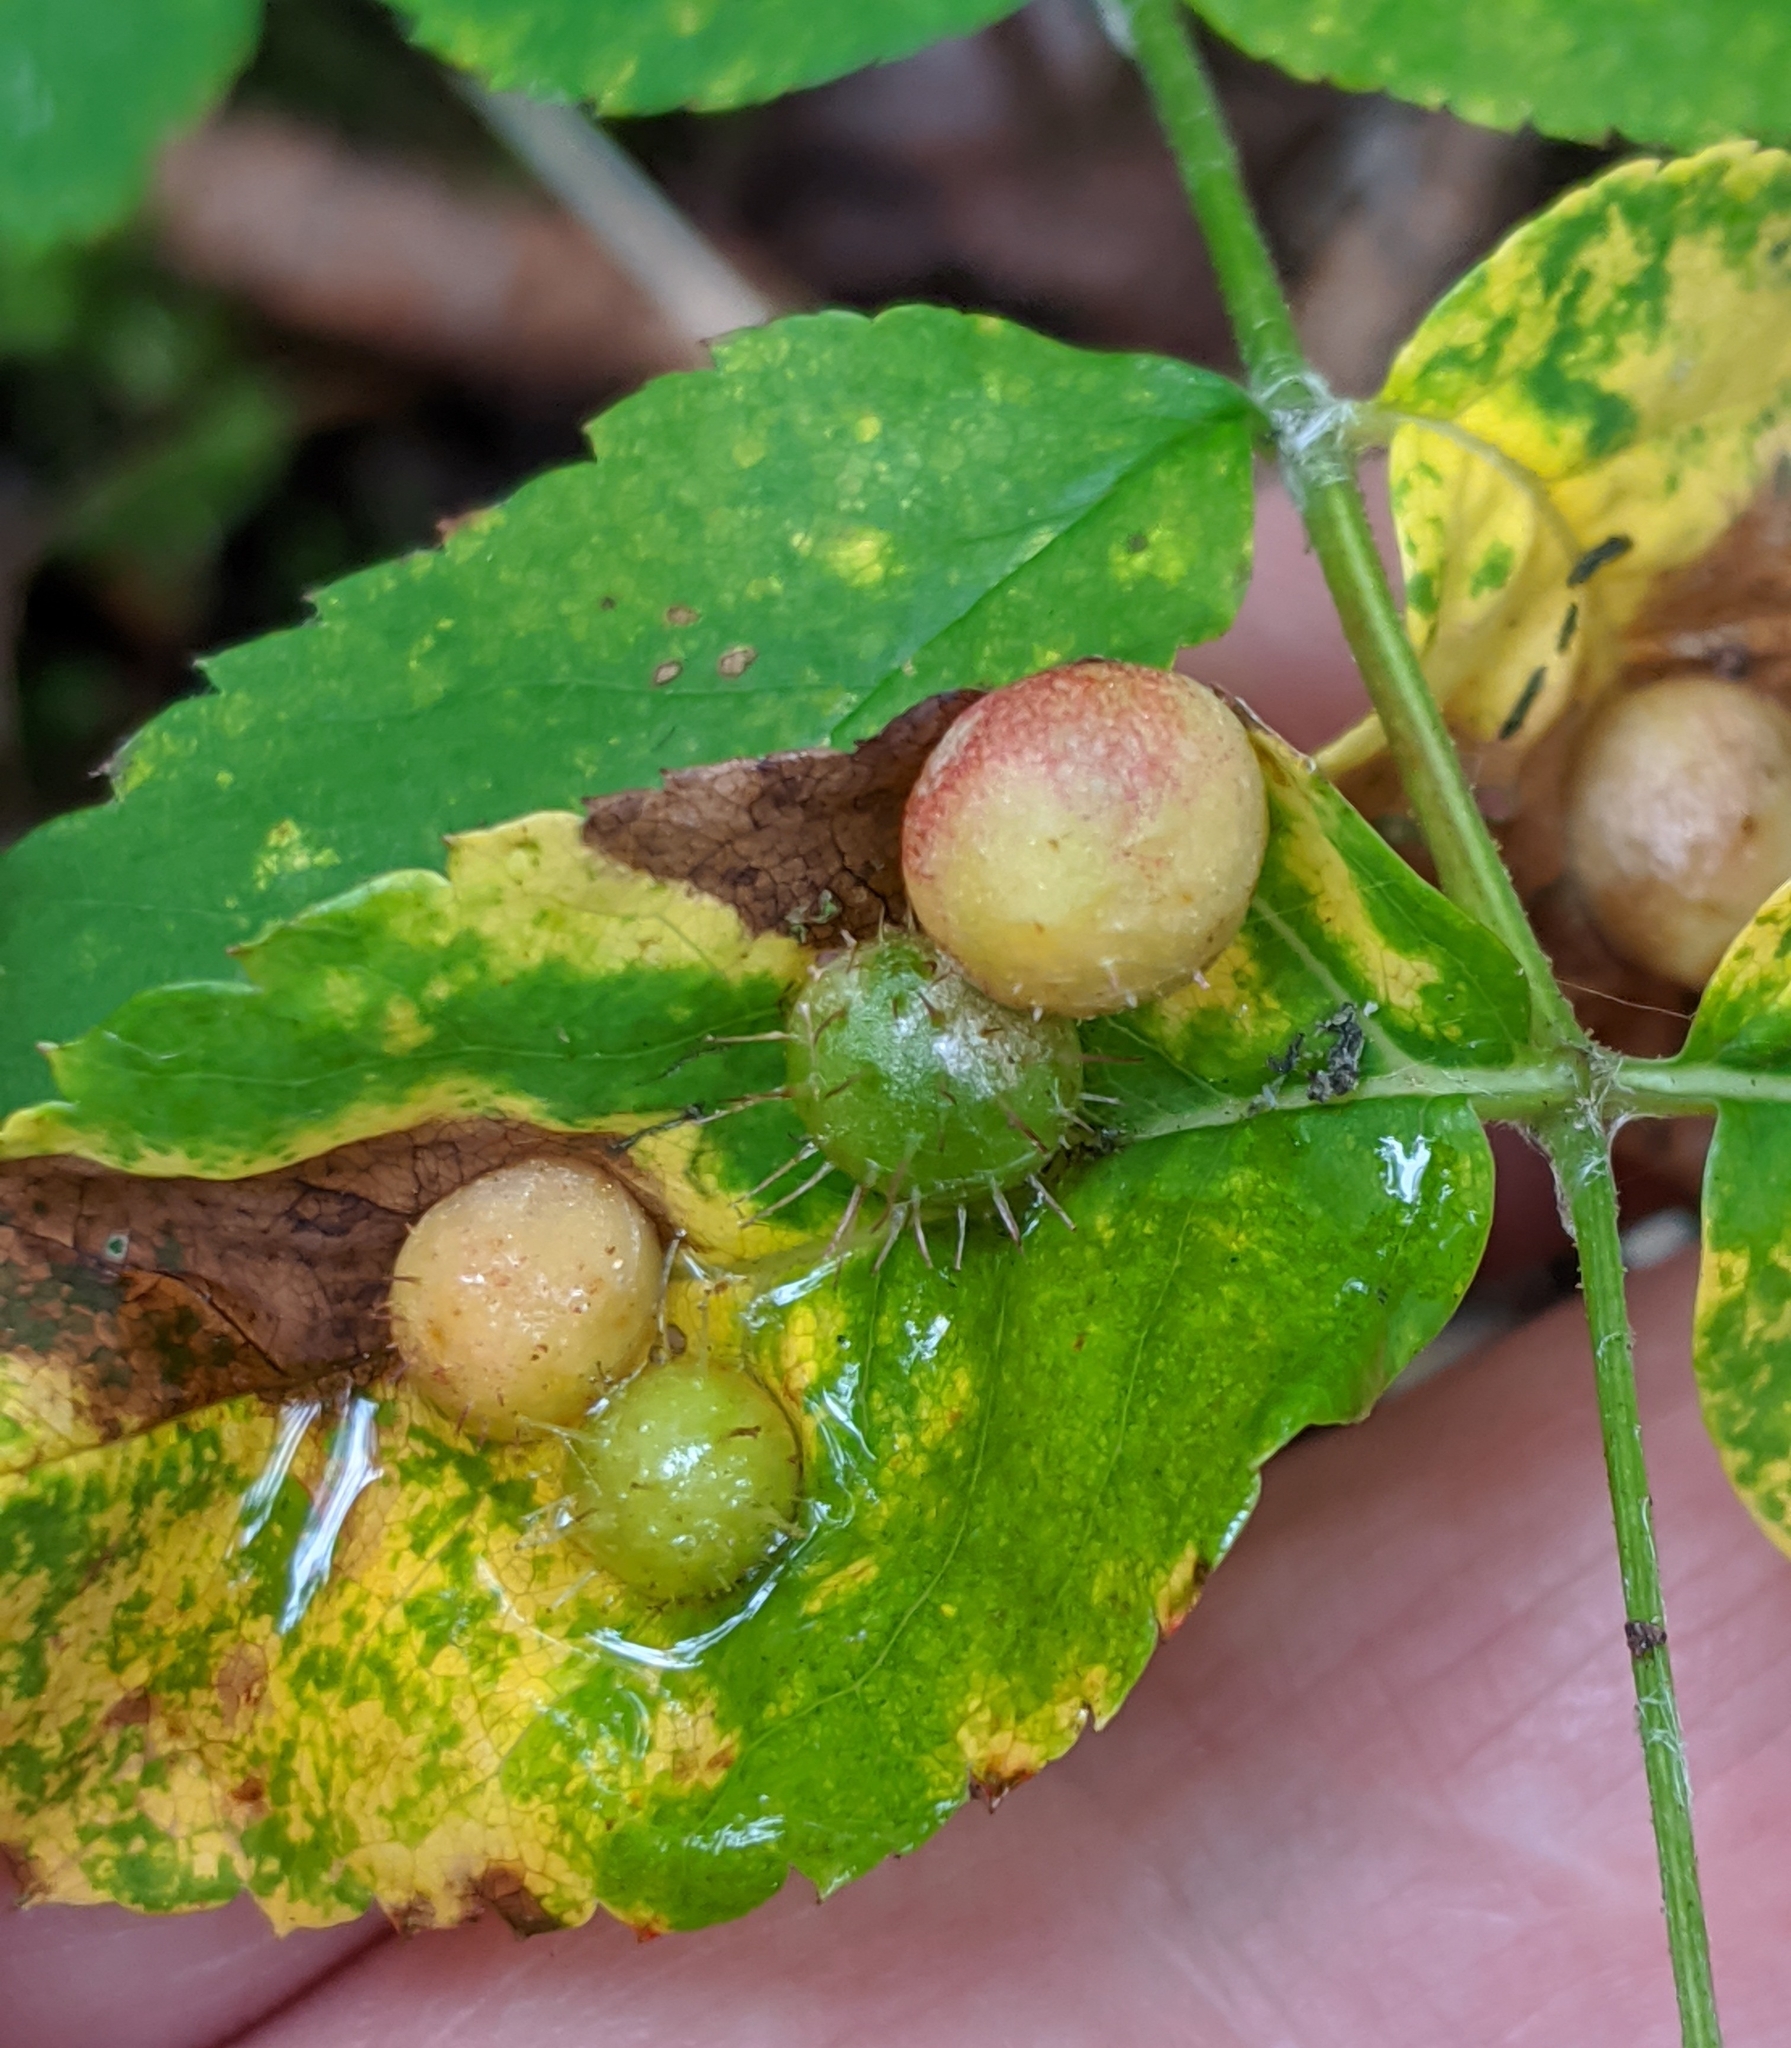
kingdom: Animalia
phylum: Arthropoda
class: Insecta
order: Hymenoptera
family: Cynipidae
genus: Diplolepis
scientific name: Diplolepis polita
